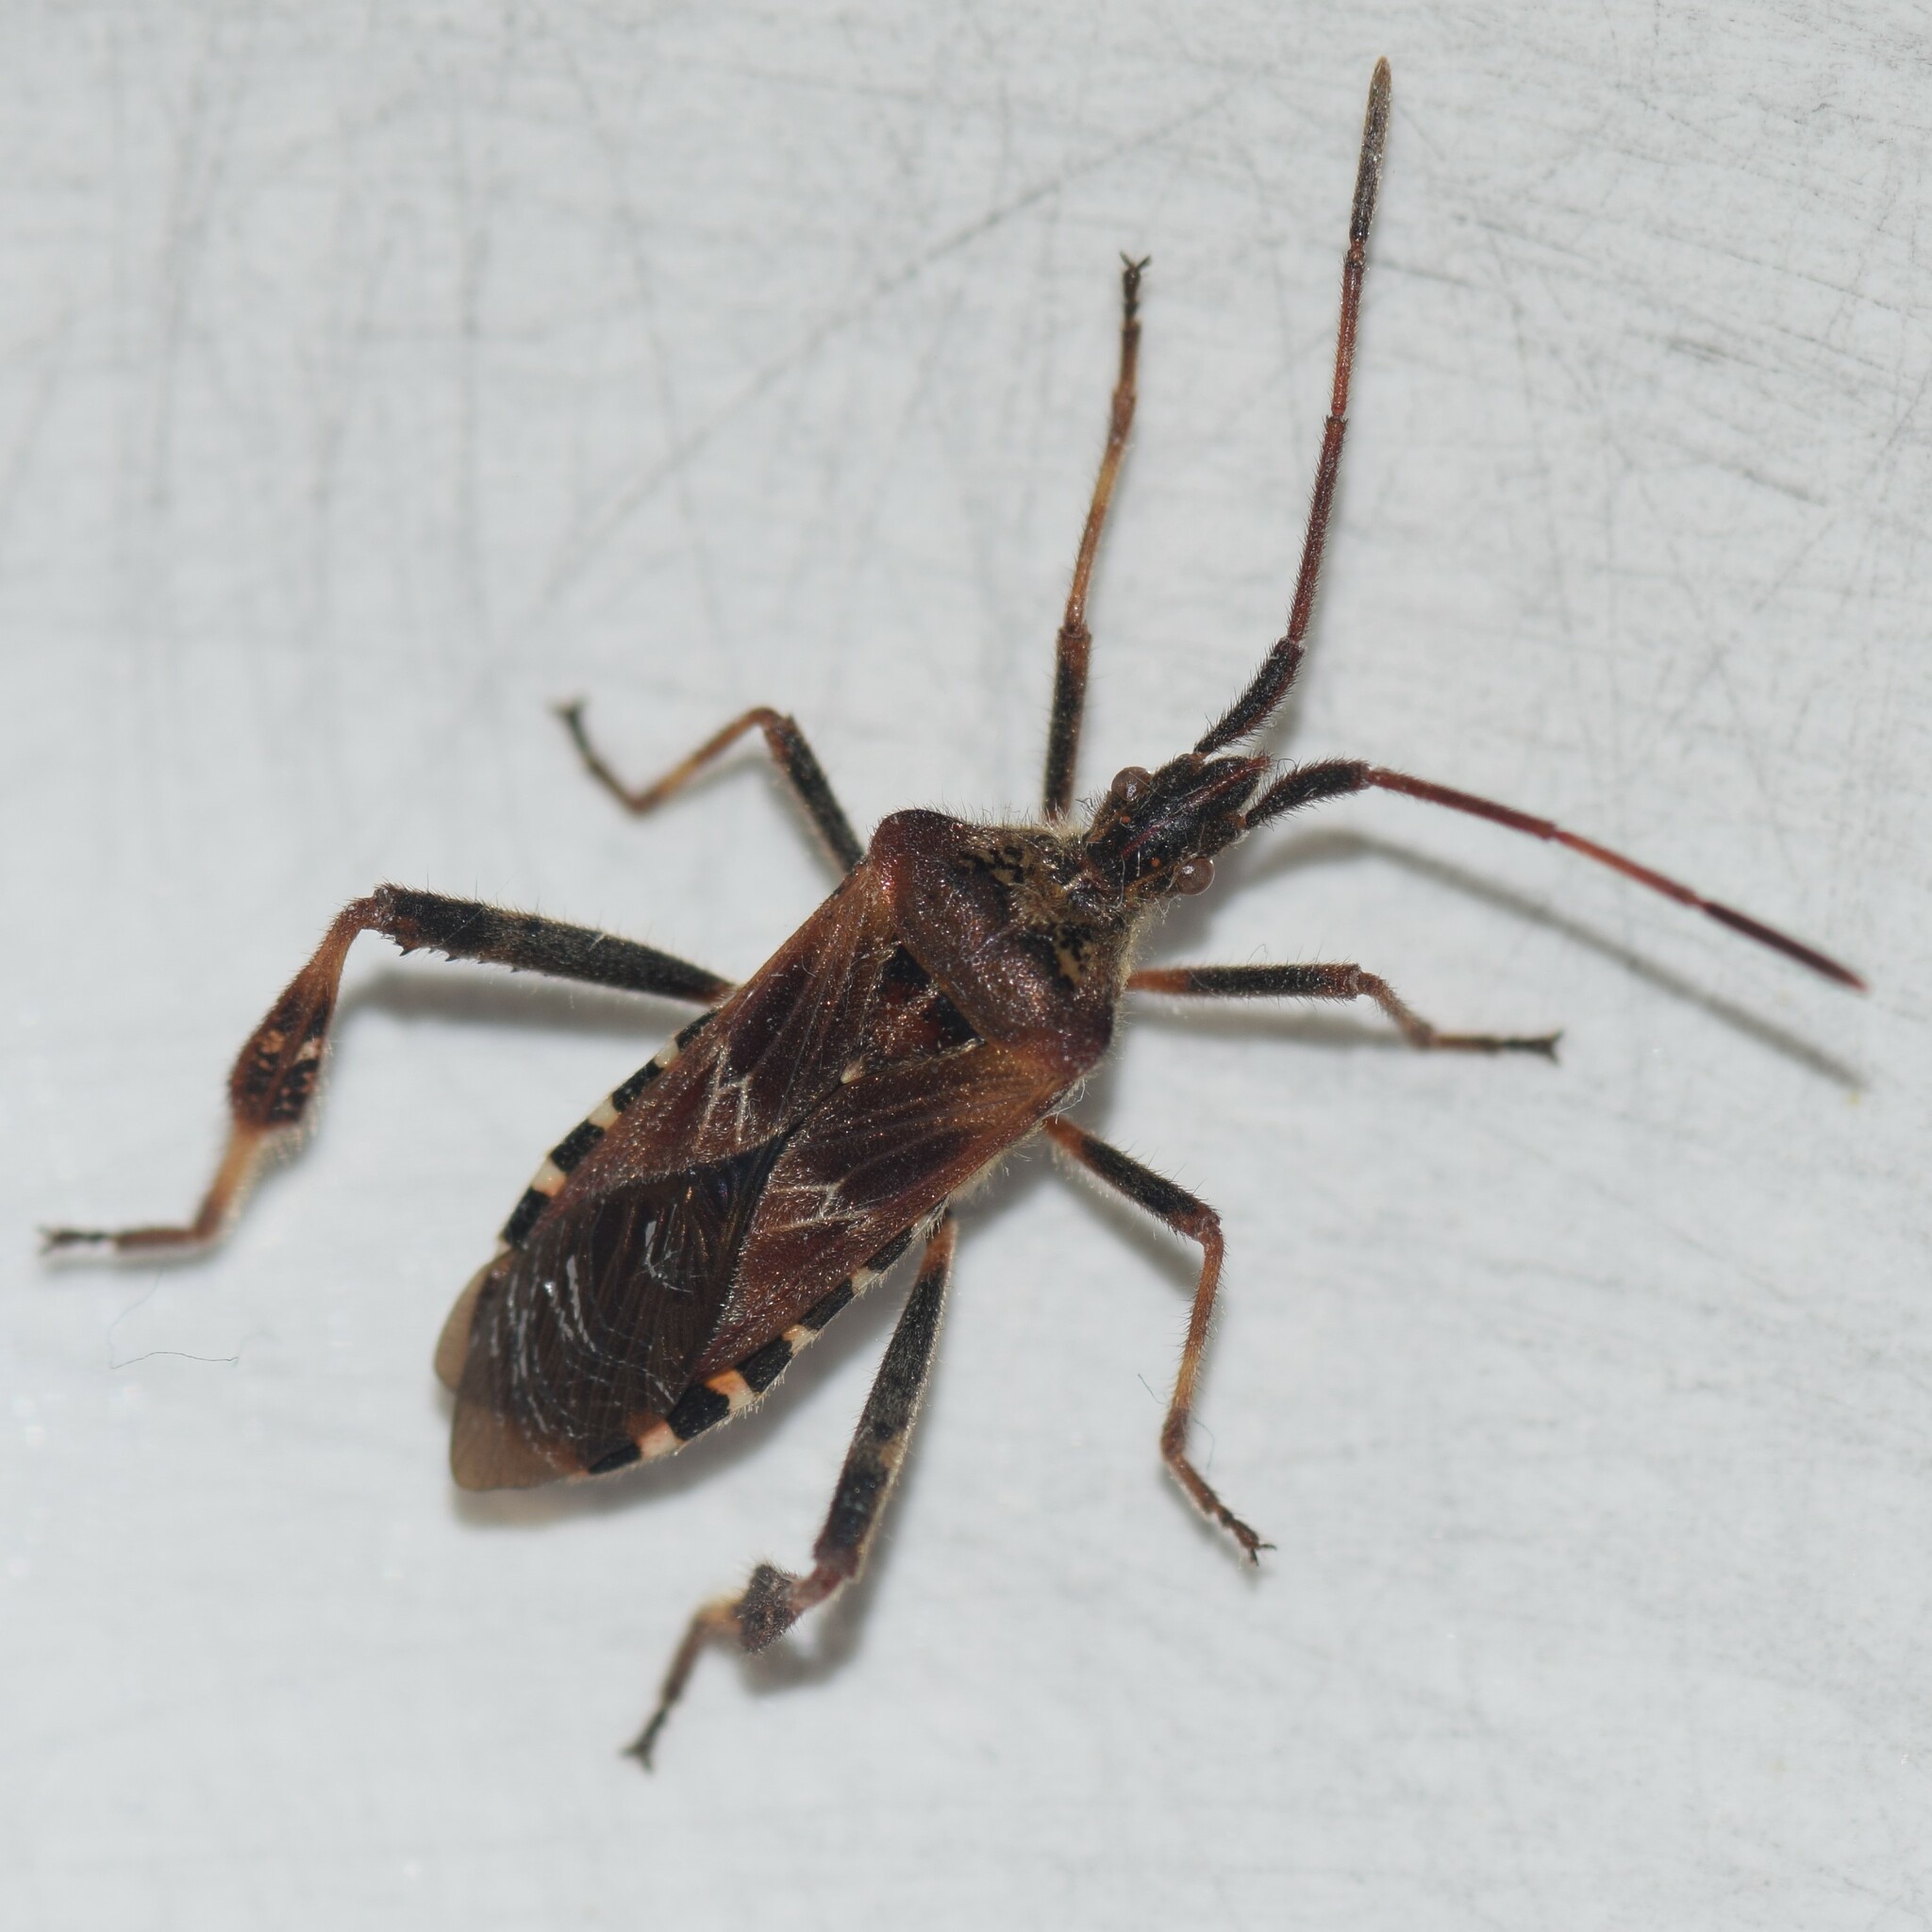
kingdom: Animalia
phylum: Arthropoda
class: Insecta
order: Hemiptera
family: Coreidae
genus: Leptoglossus
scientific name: Leptoglossus occidentalis
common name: Western conifer-seed bug
